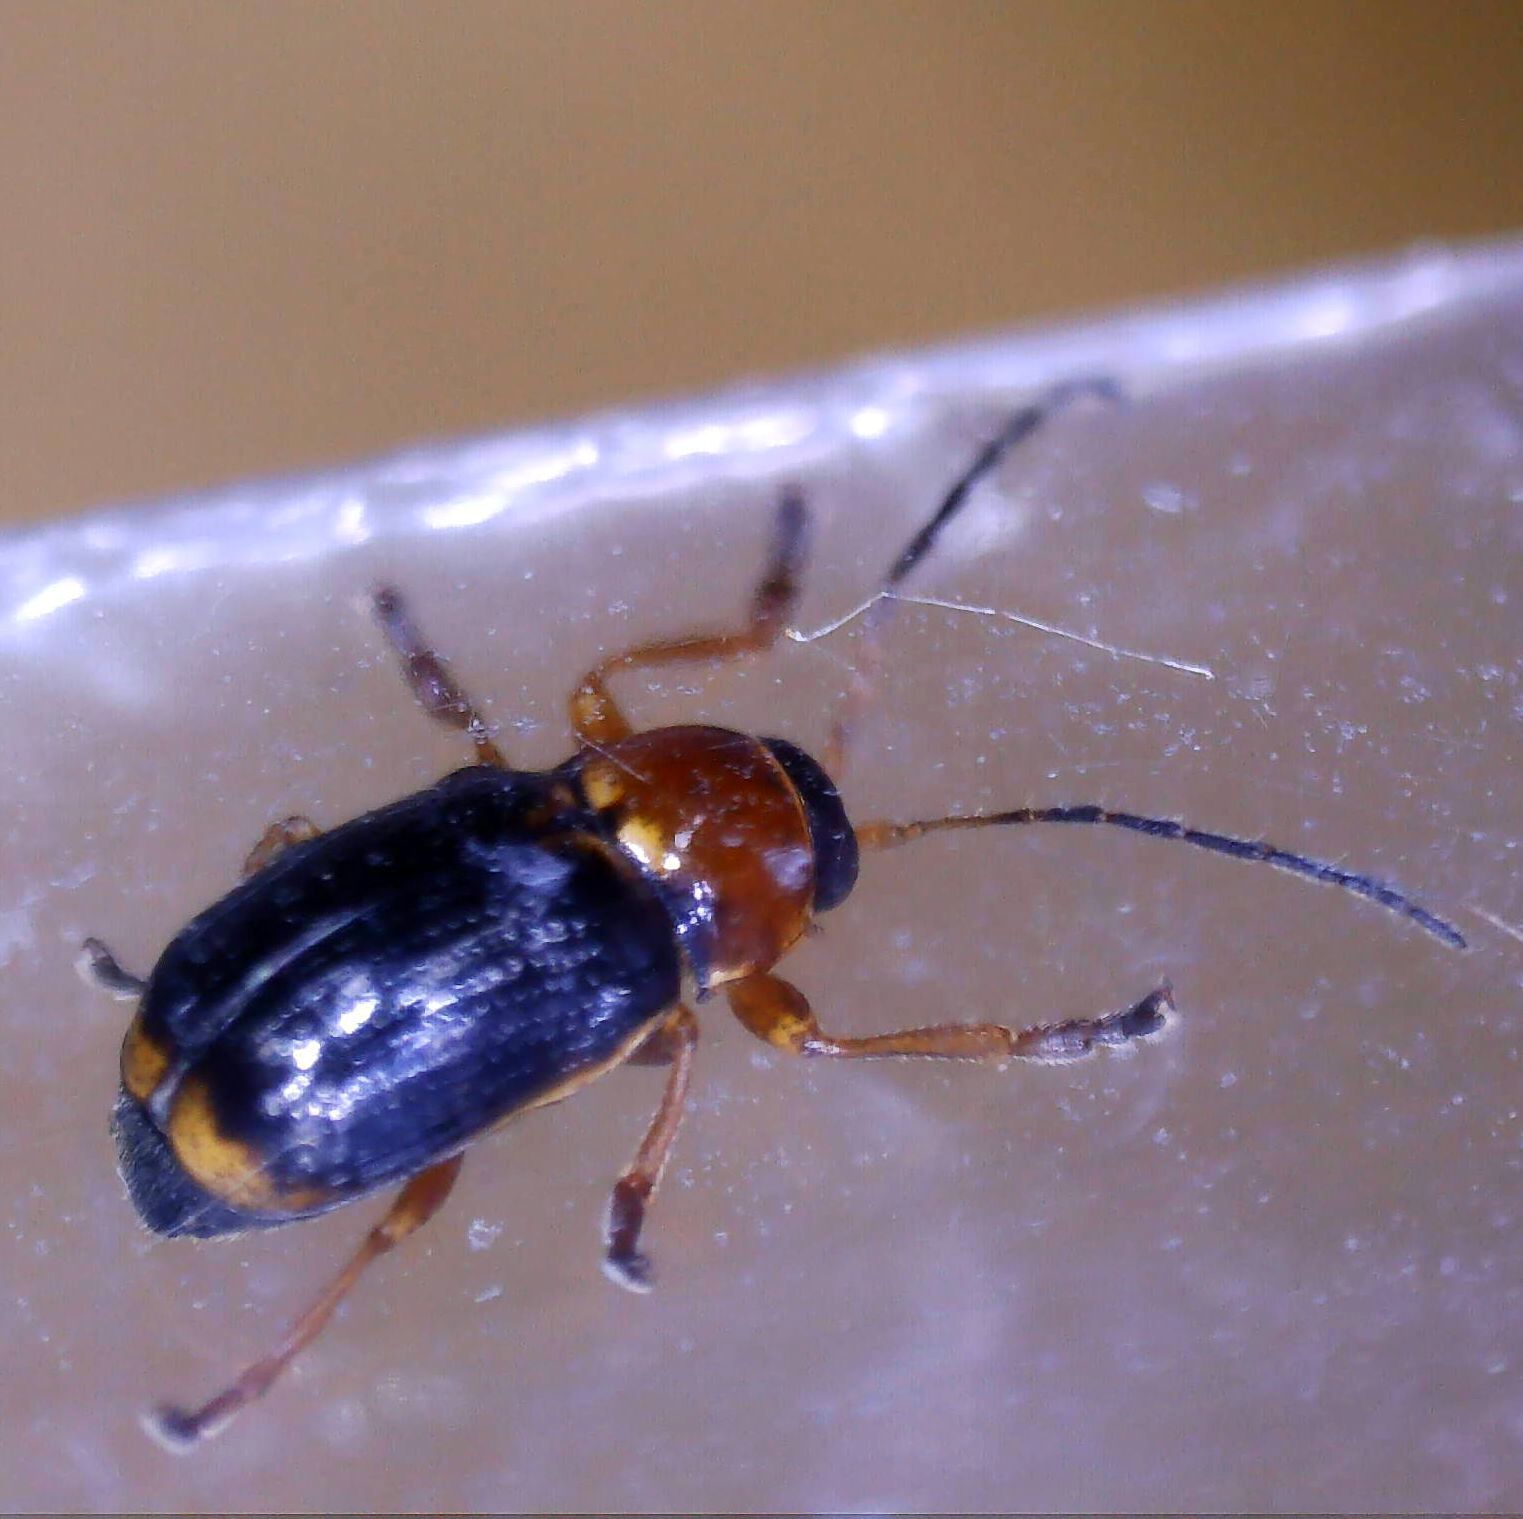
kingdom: Animalia
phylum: Arthropoda
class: Insecta
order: Coleoptera
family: Chrysomelidae
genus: Cryptocephalus
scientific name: Cryptocephalus pusillus
